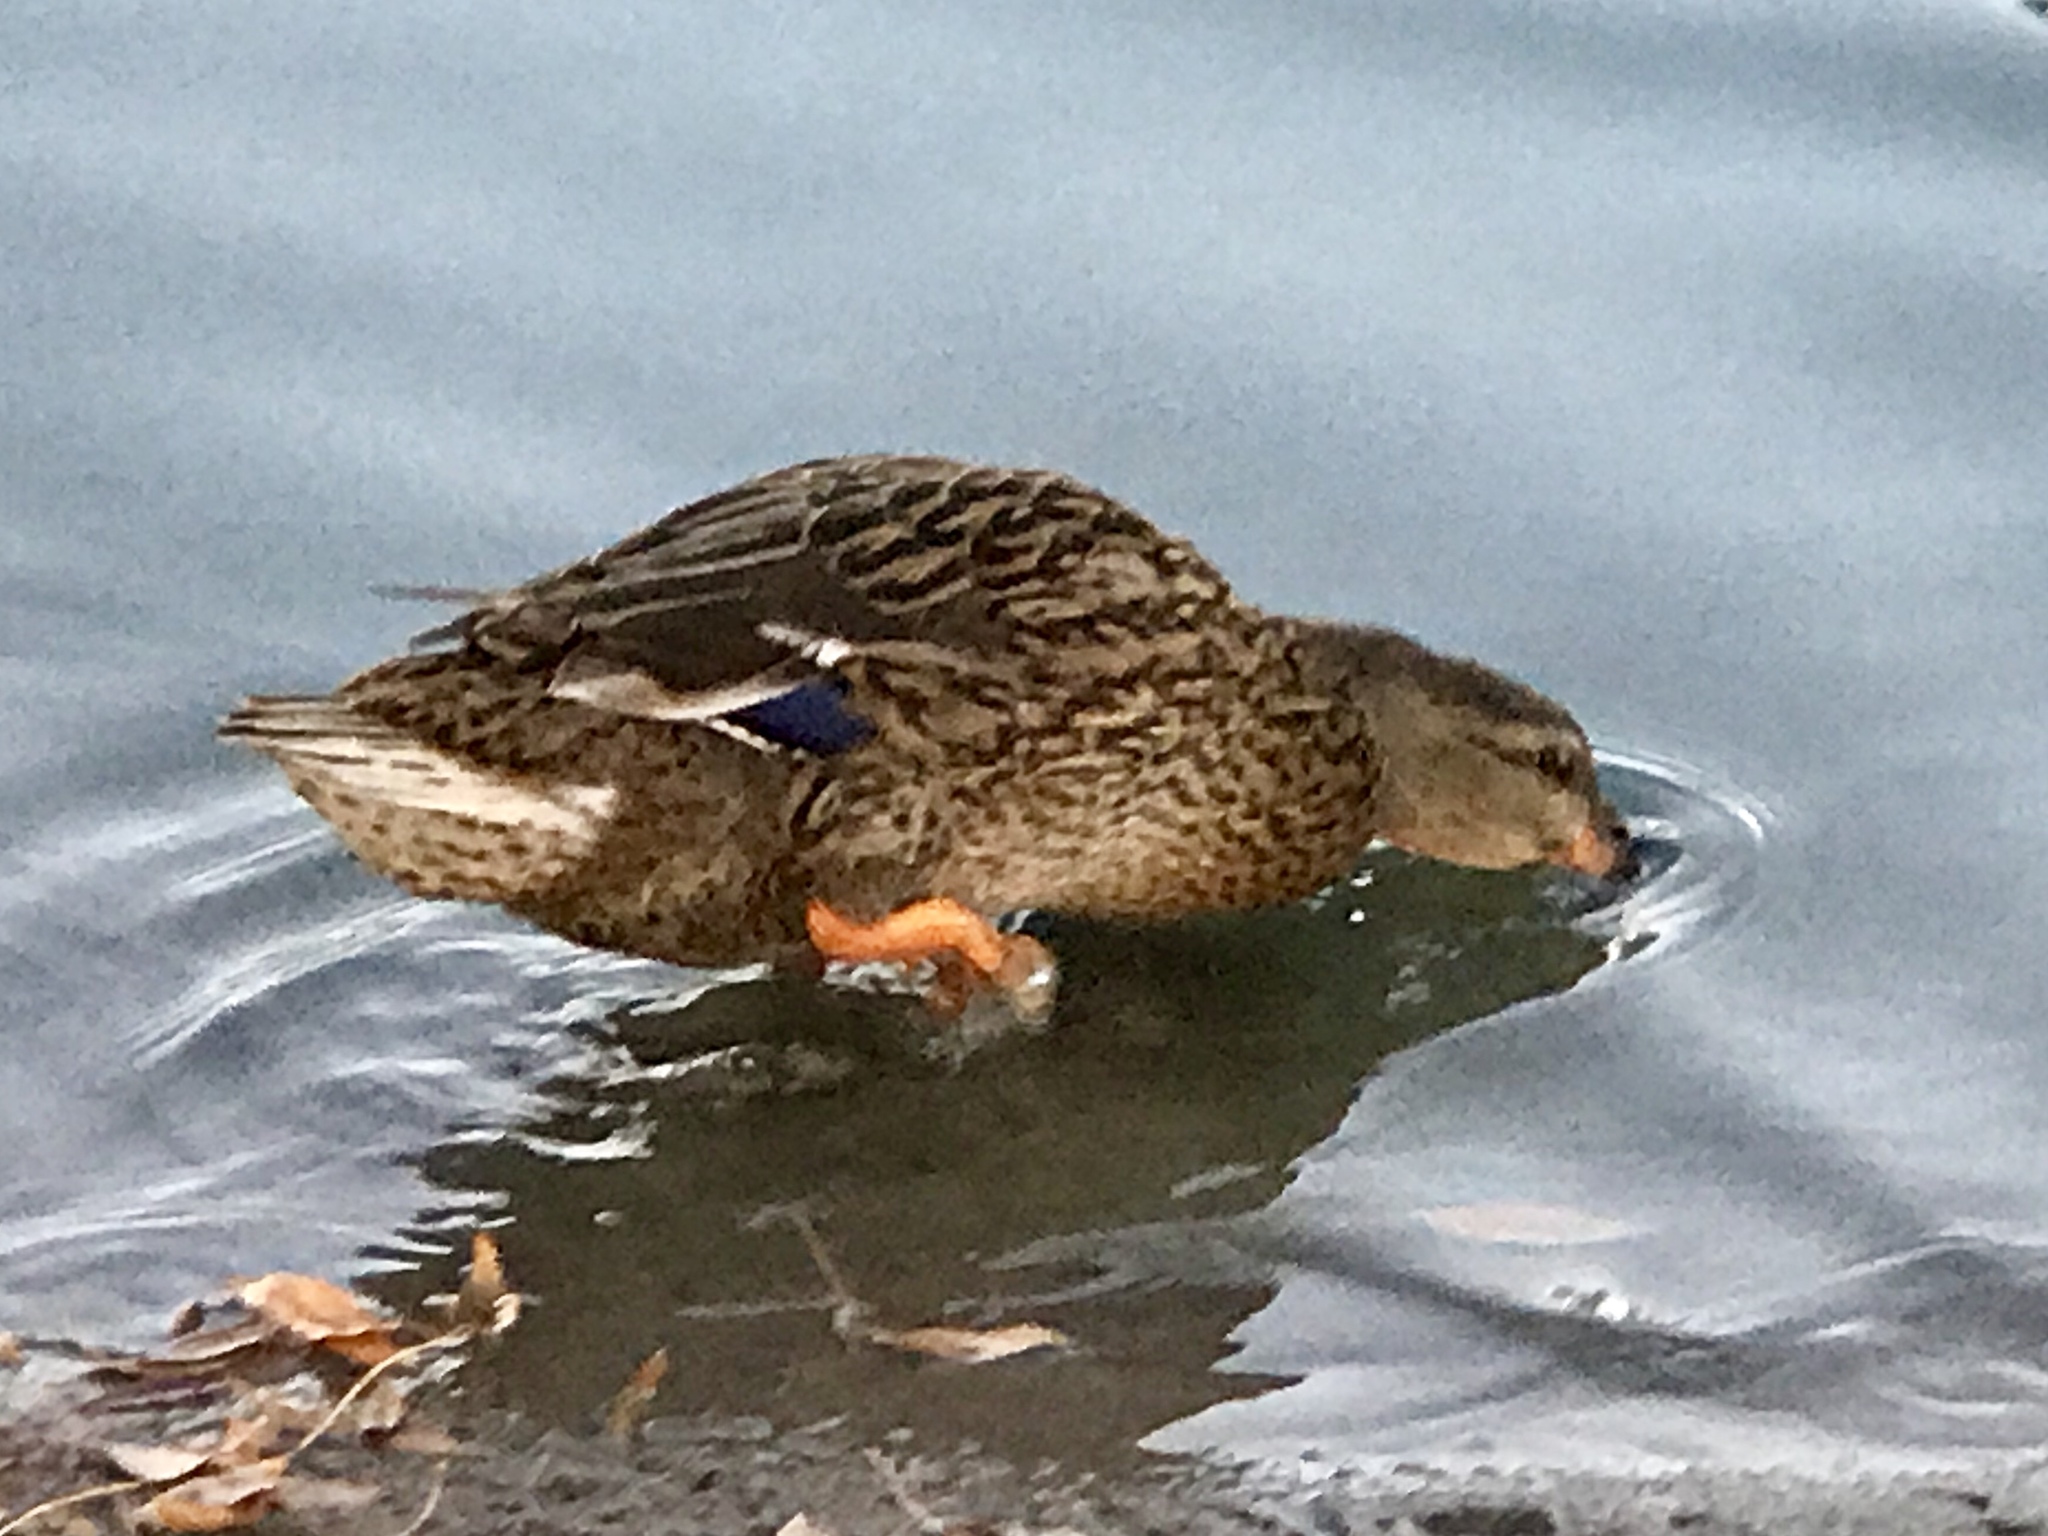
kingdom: Animalia
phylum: Chordata
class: Aves
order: Anseriformes
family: Anatidae
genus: Anas
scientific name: Anas platyrhynchos
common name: Mallard
